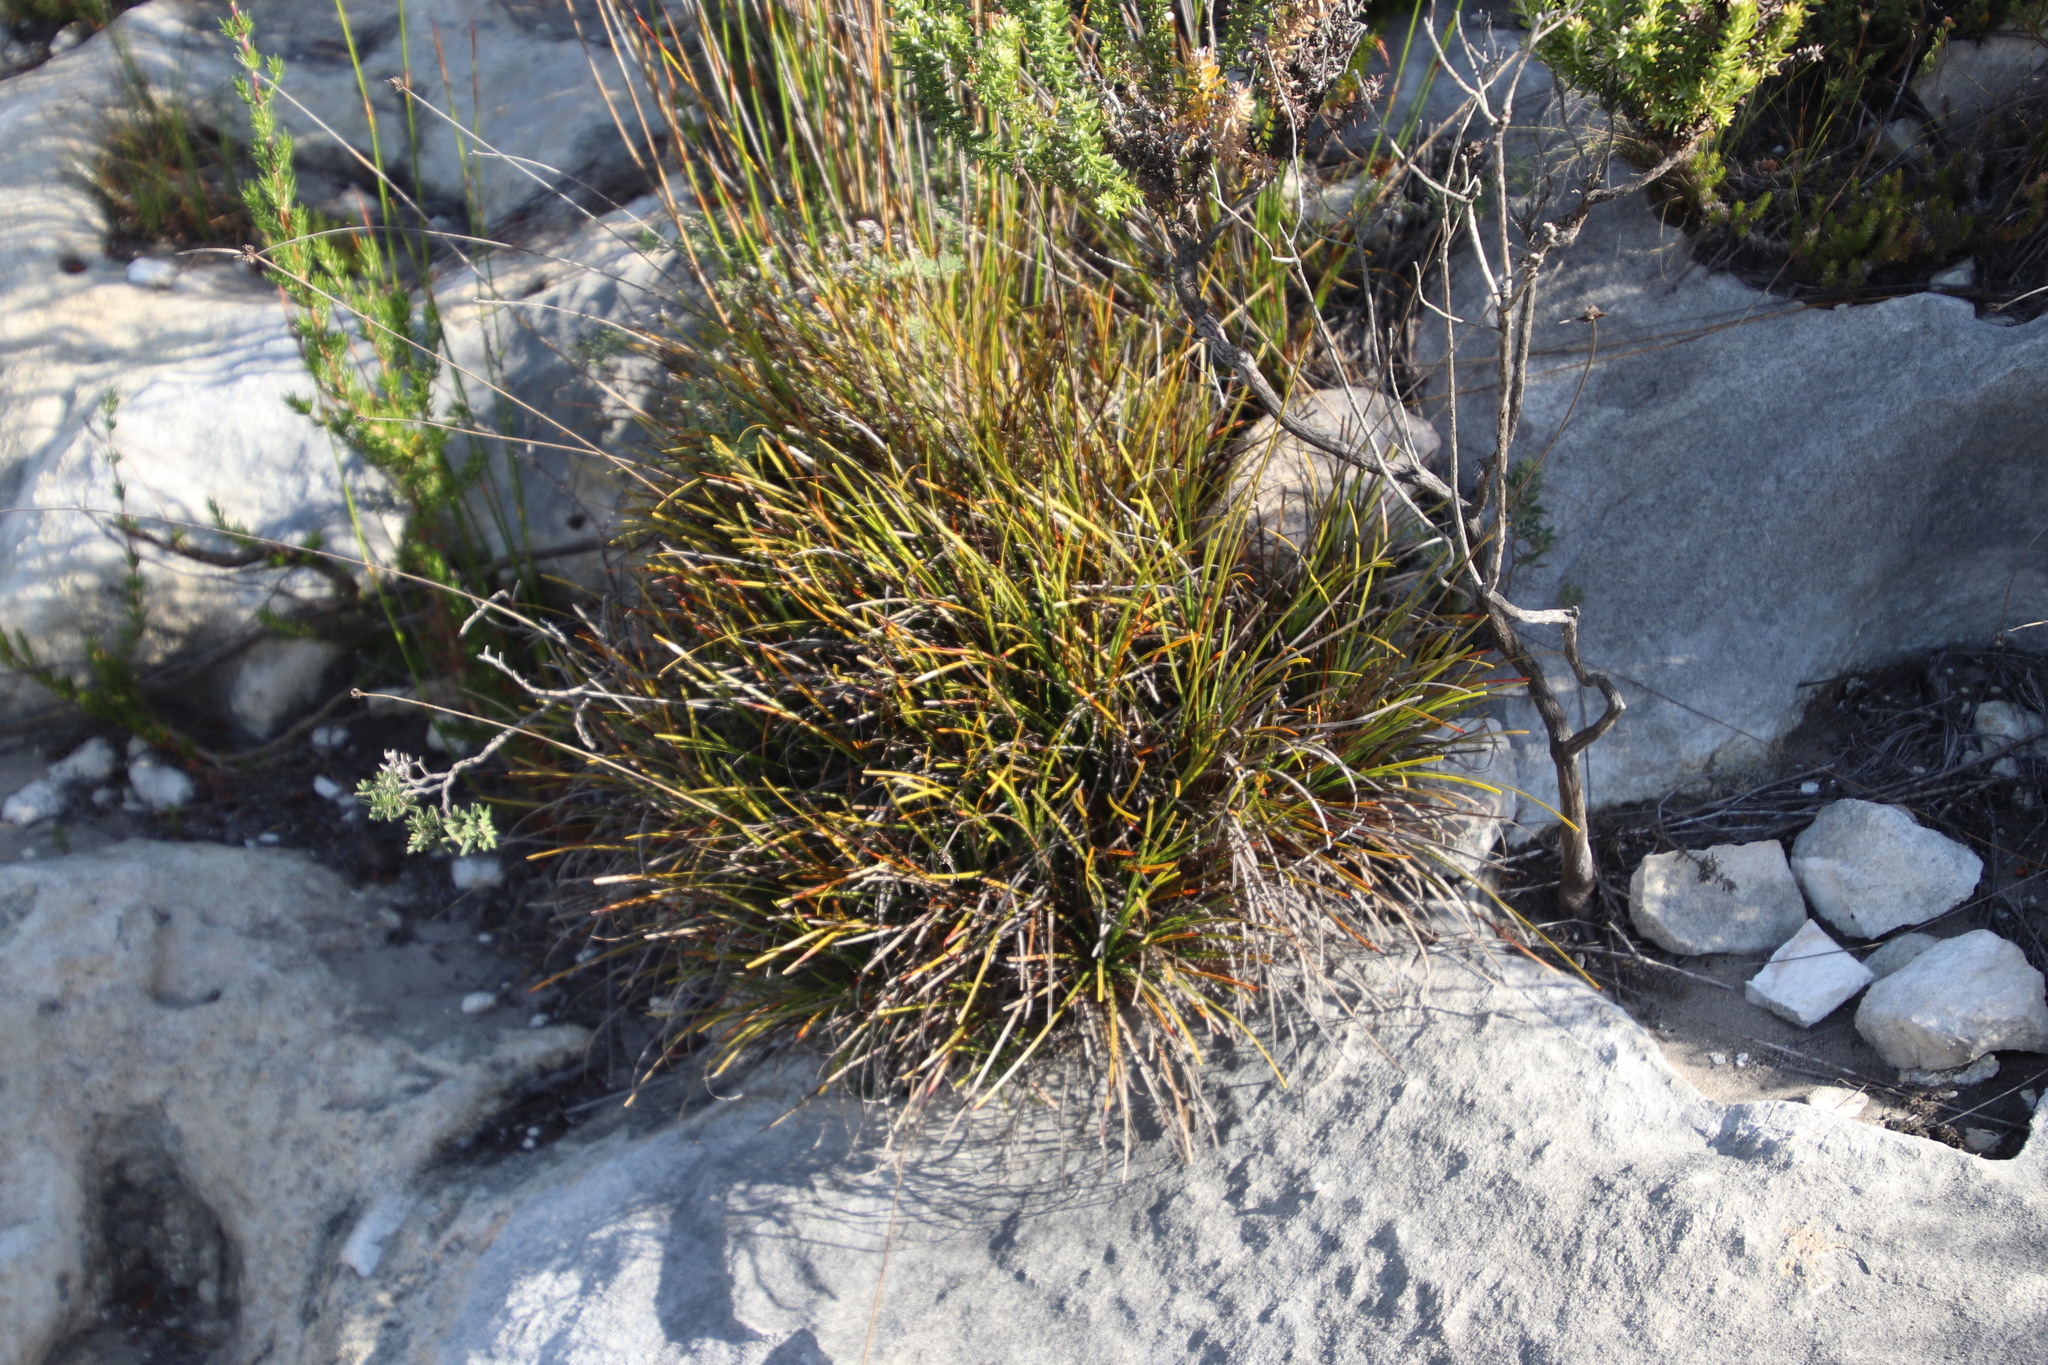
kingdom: Plantae
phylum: Tracheophyta
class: Liliopsida
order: Poales
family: Cyperaceae
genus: Ficinia
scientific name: Ficinia praemorsa
